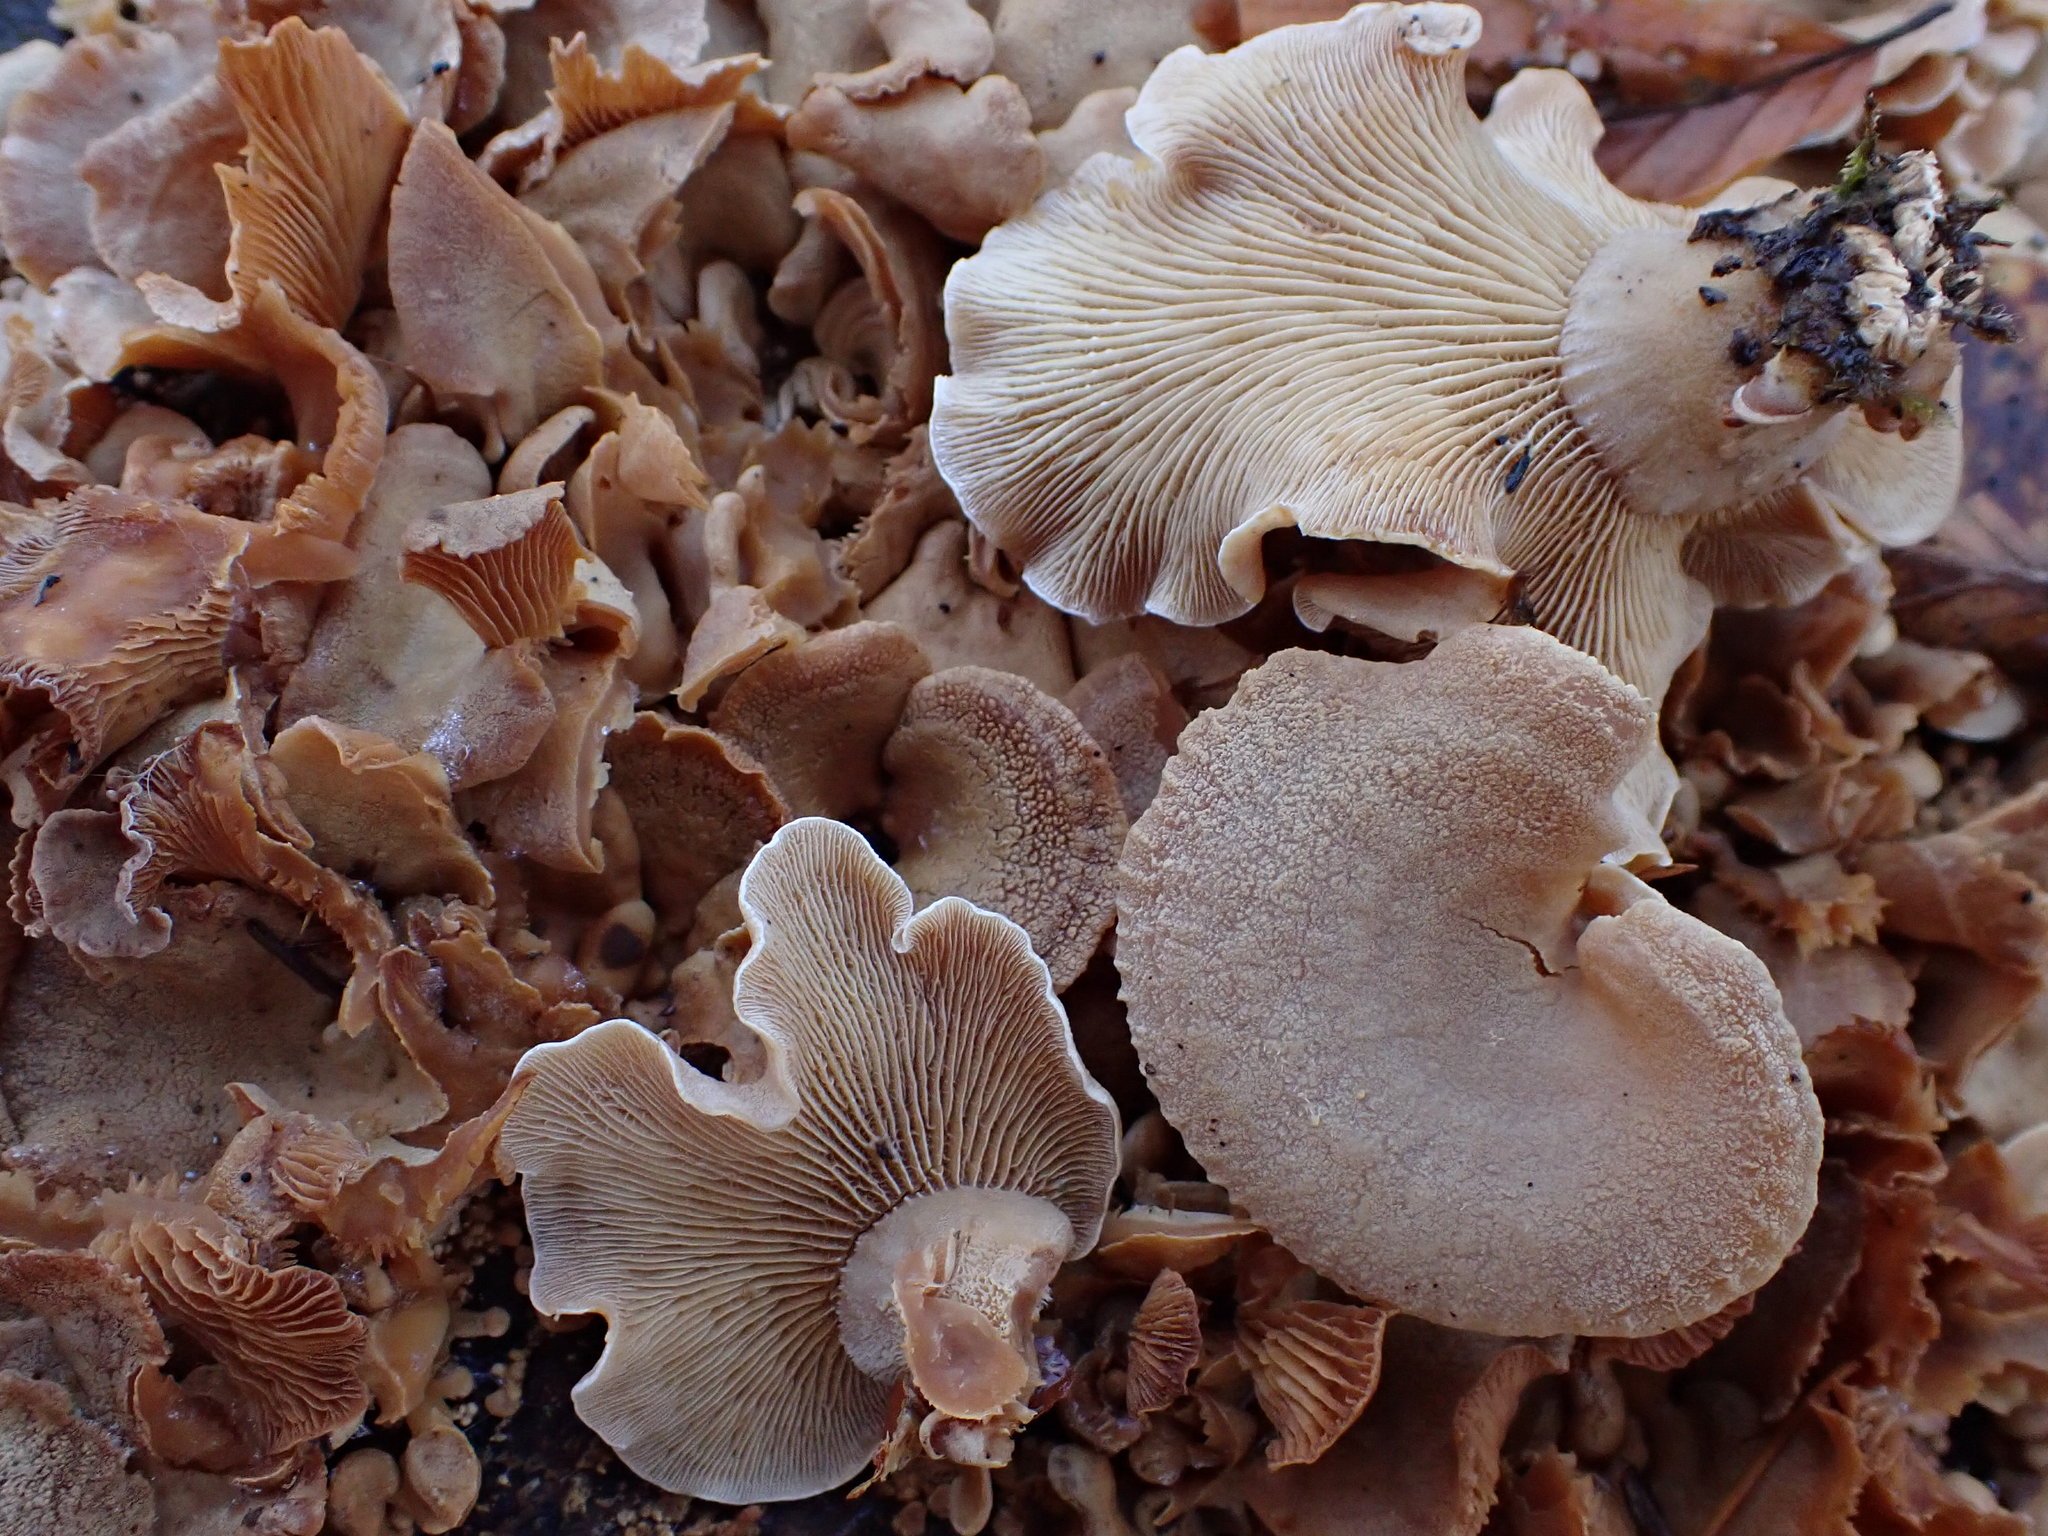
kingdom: Fungi
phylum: Basidiomycota
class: Agaricomycetes
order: Agaricales
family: Mycenaceae
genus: Panellus
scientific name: Panellus stipticus
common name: Bitter oysterling
